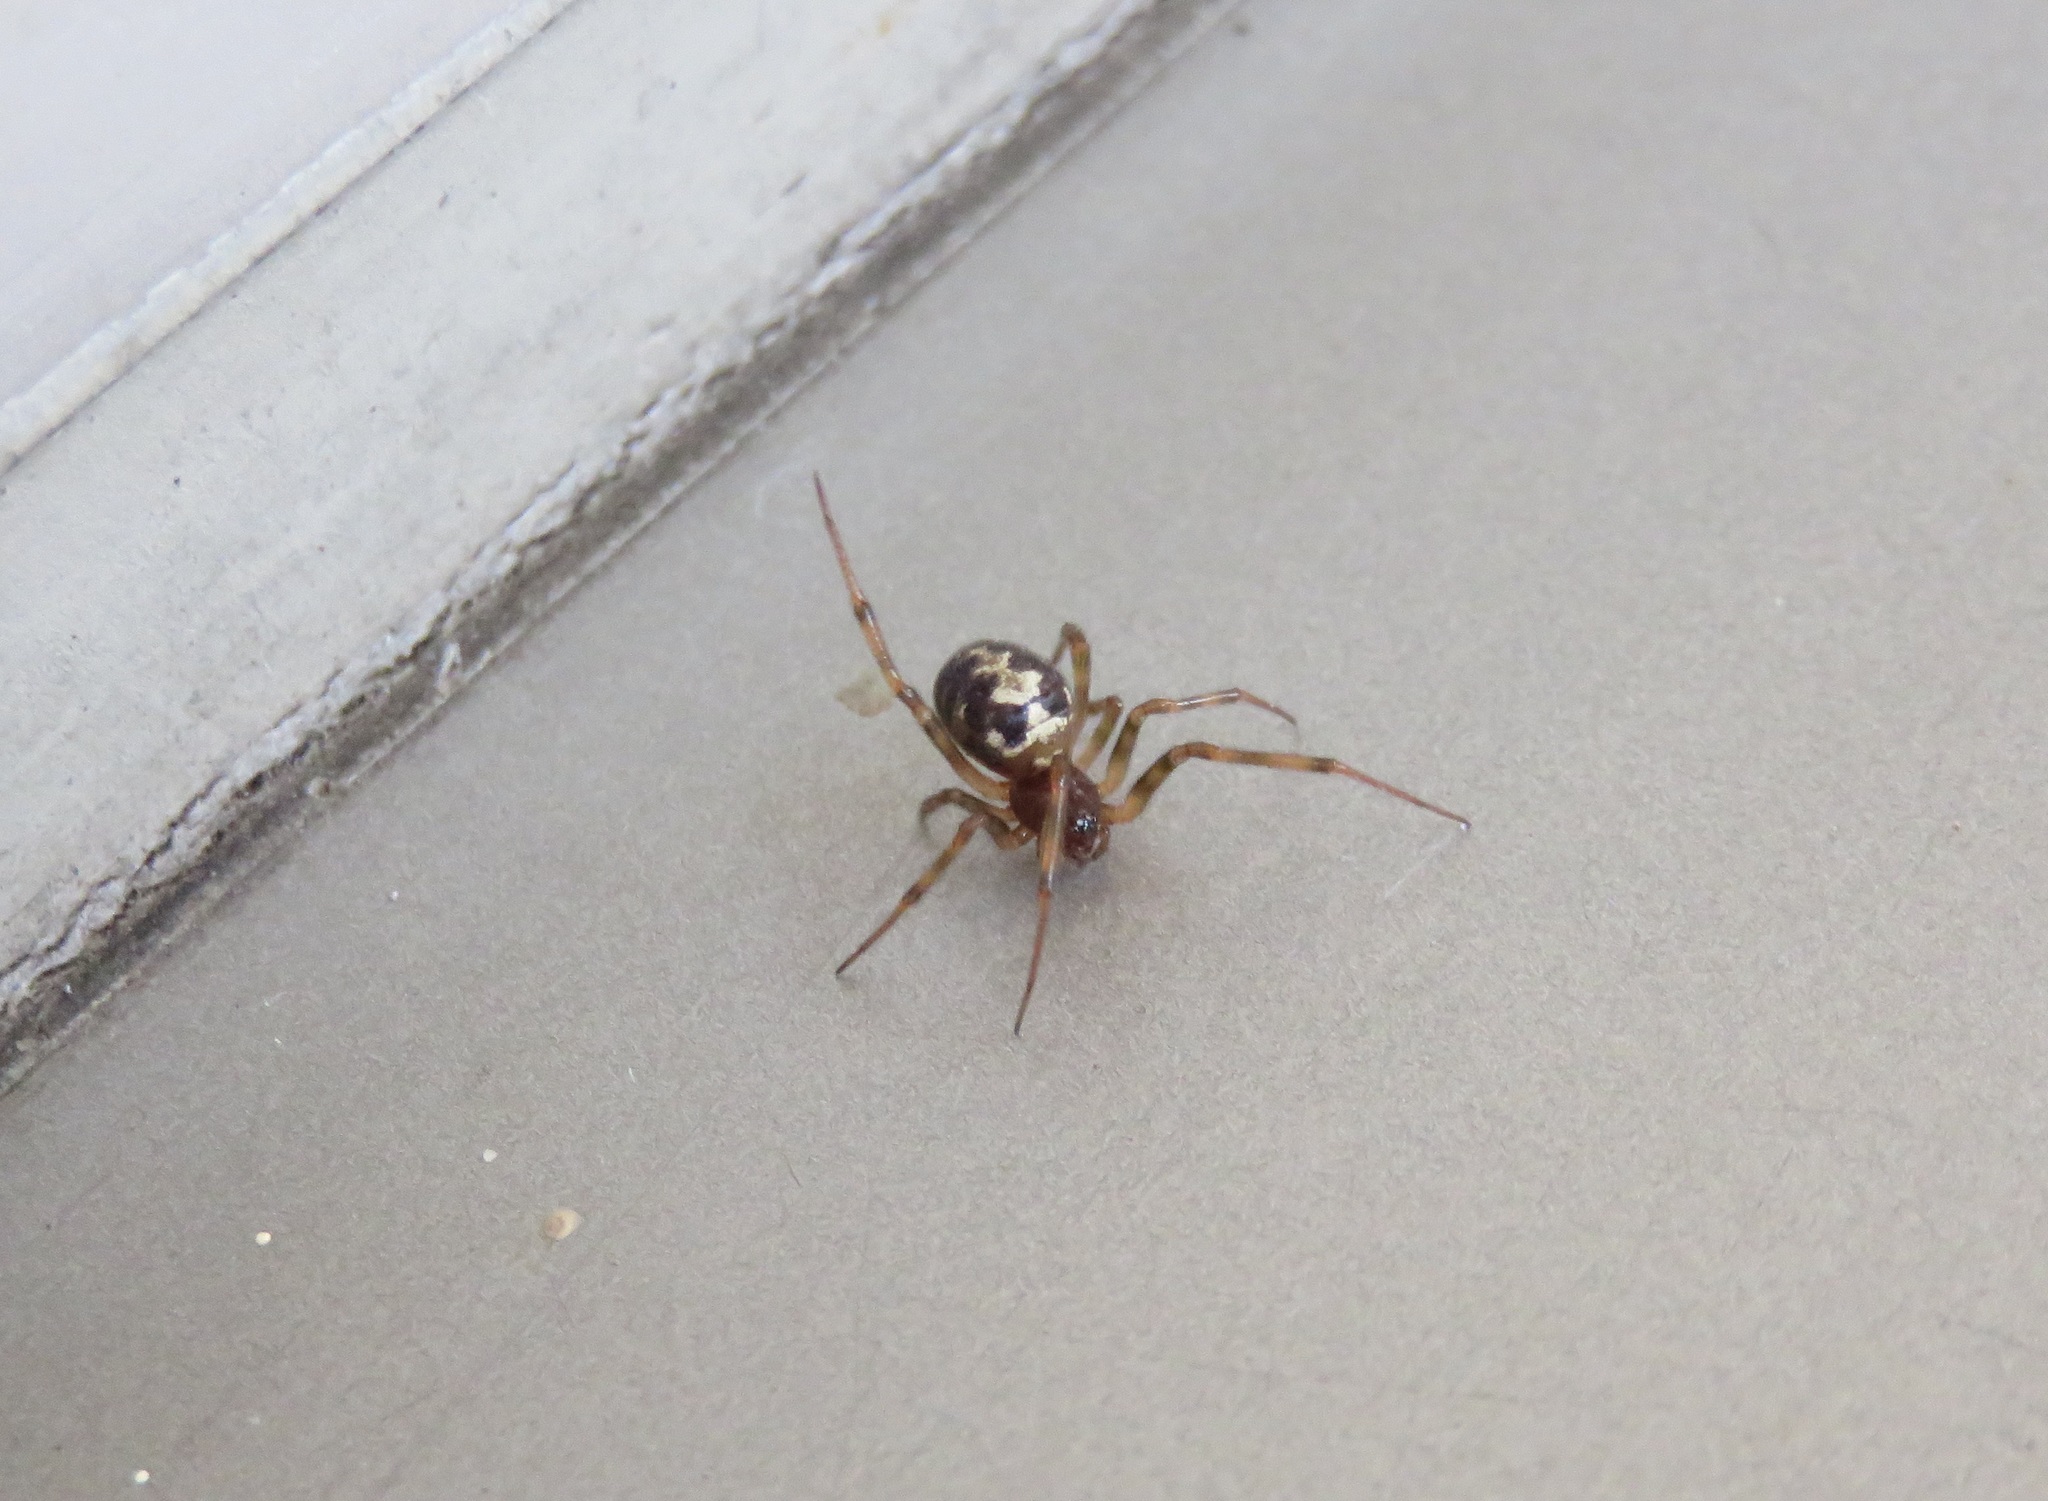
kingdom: Animalia
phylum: Arthropoda
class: Arachnida
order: Araneae
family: Theridiidae
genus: Steatoda
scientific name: Steatoda triangulosa
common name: Triangulate bud spider
